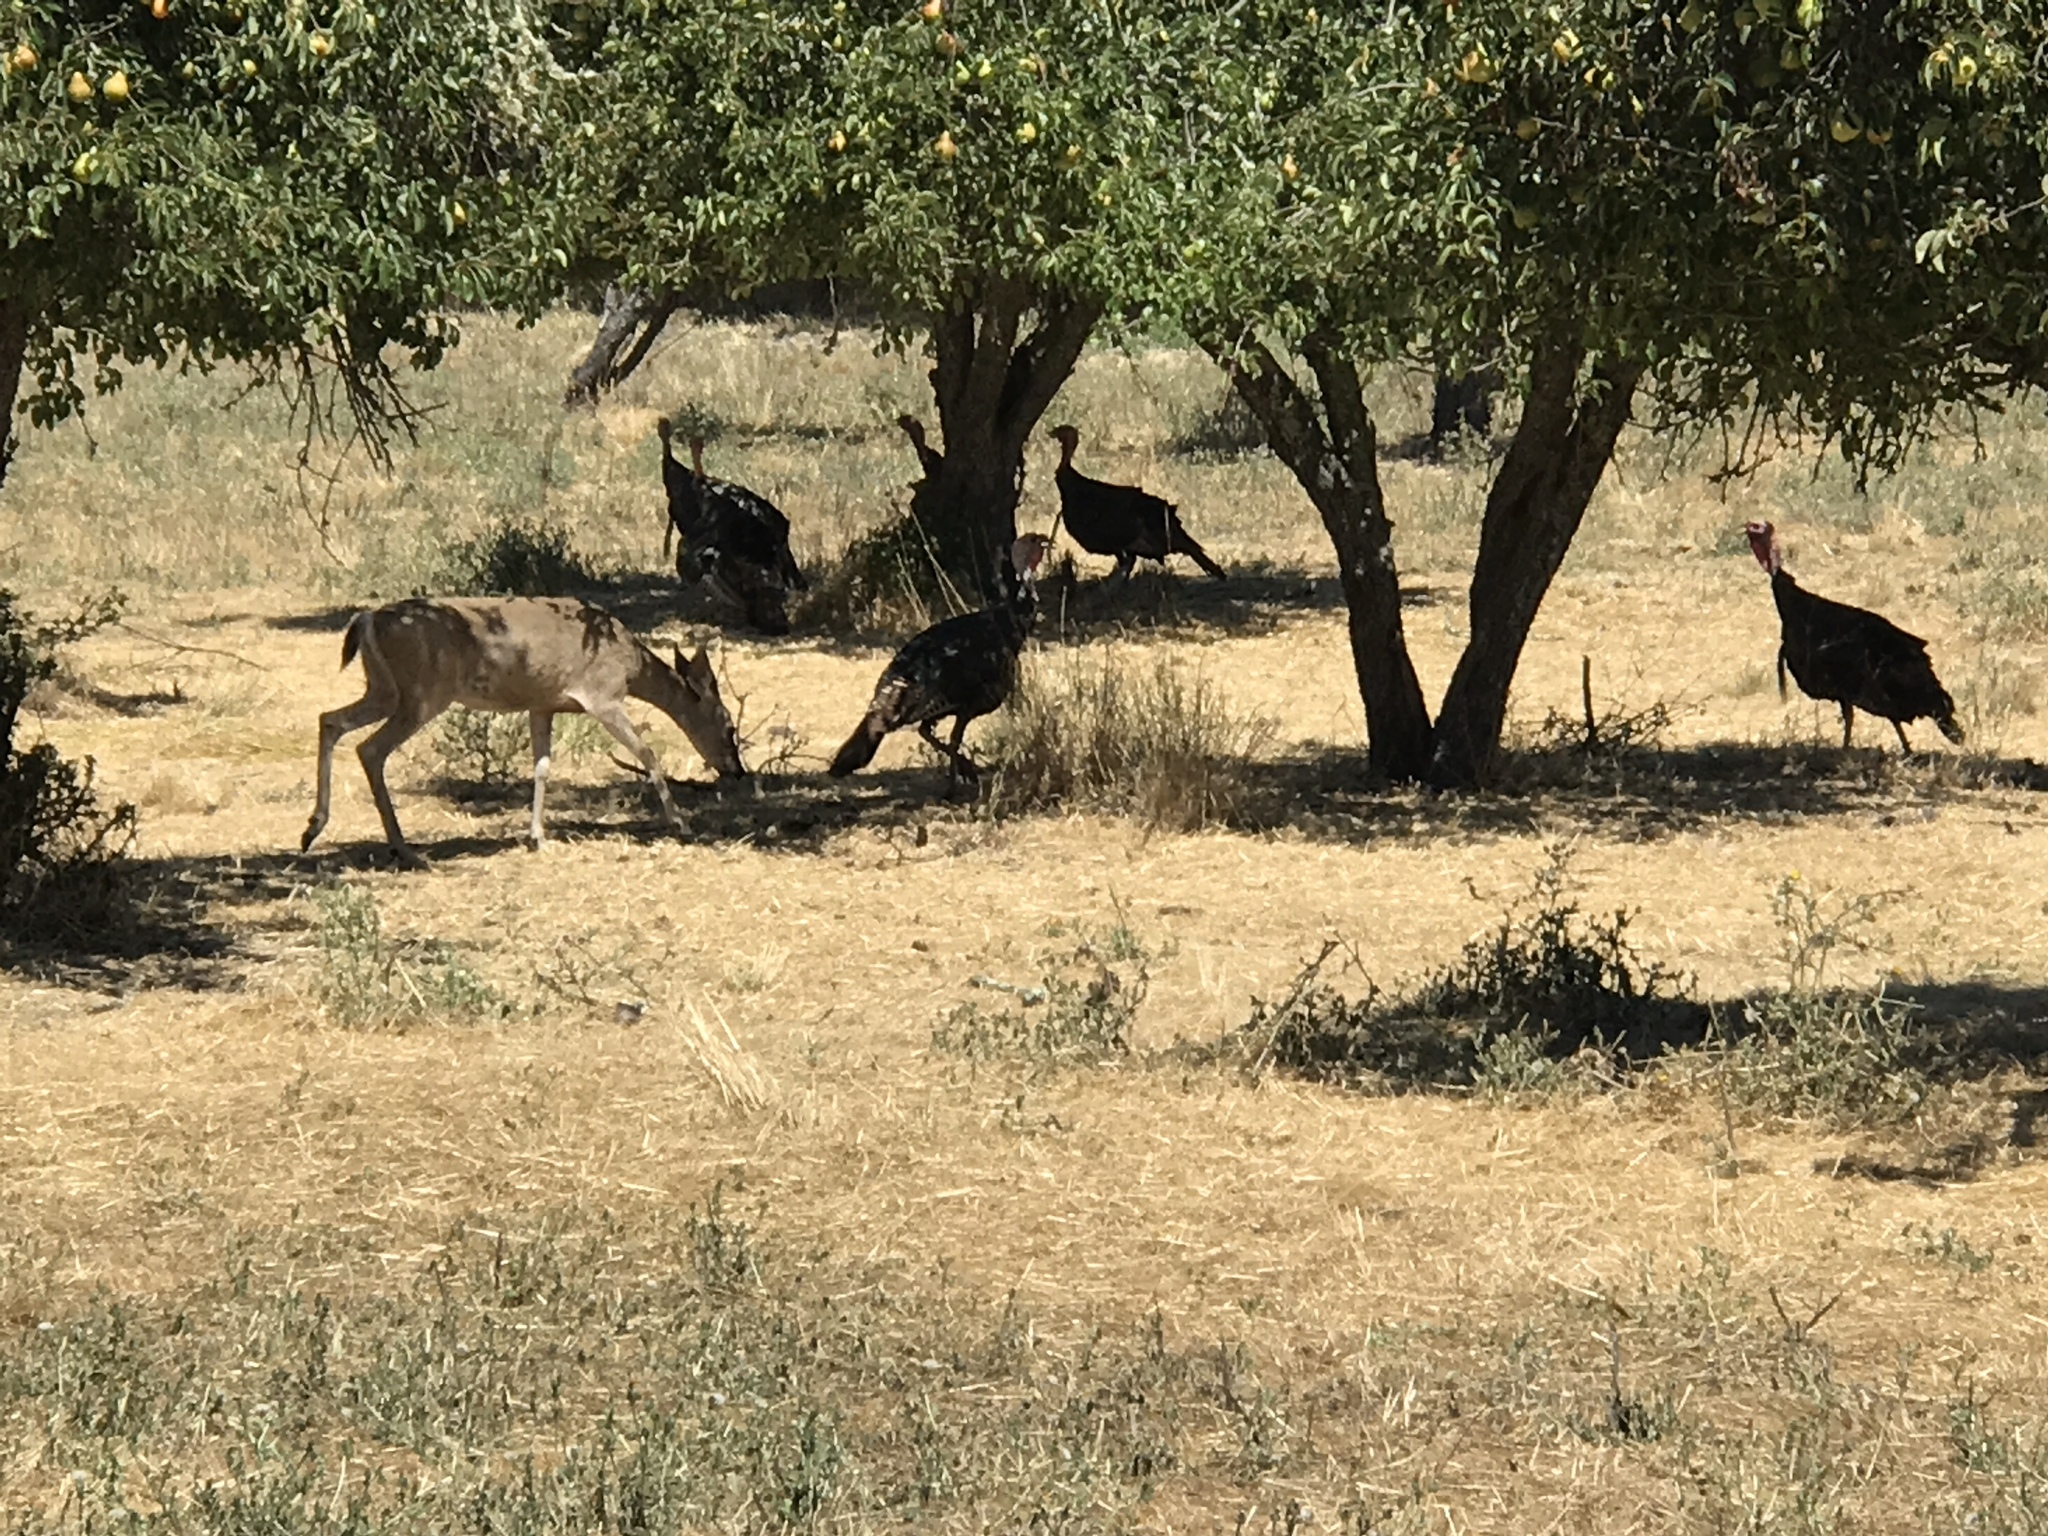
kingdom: Animalia
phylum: Chordata
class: Mammalia
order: Artiodactyla
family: Cervidae
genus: Odocoileus
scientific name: Odocoileus hemionus
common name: Mule deer
